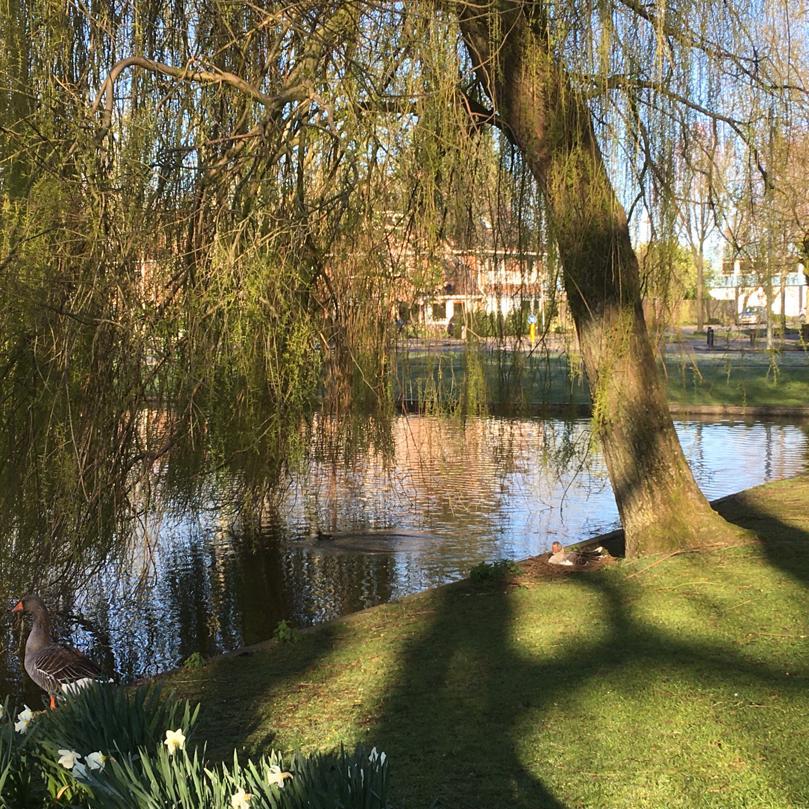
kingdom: Animalia
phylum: Chordata
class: Aves
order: Anseriformes
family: Anatidae
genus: Anser
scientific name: Anser anser
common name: Greylag goose
